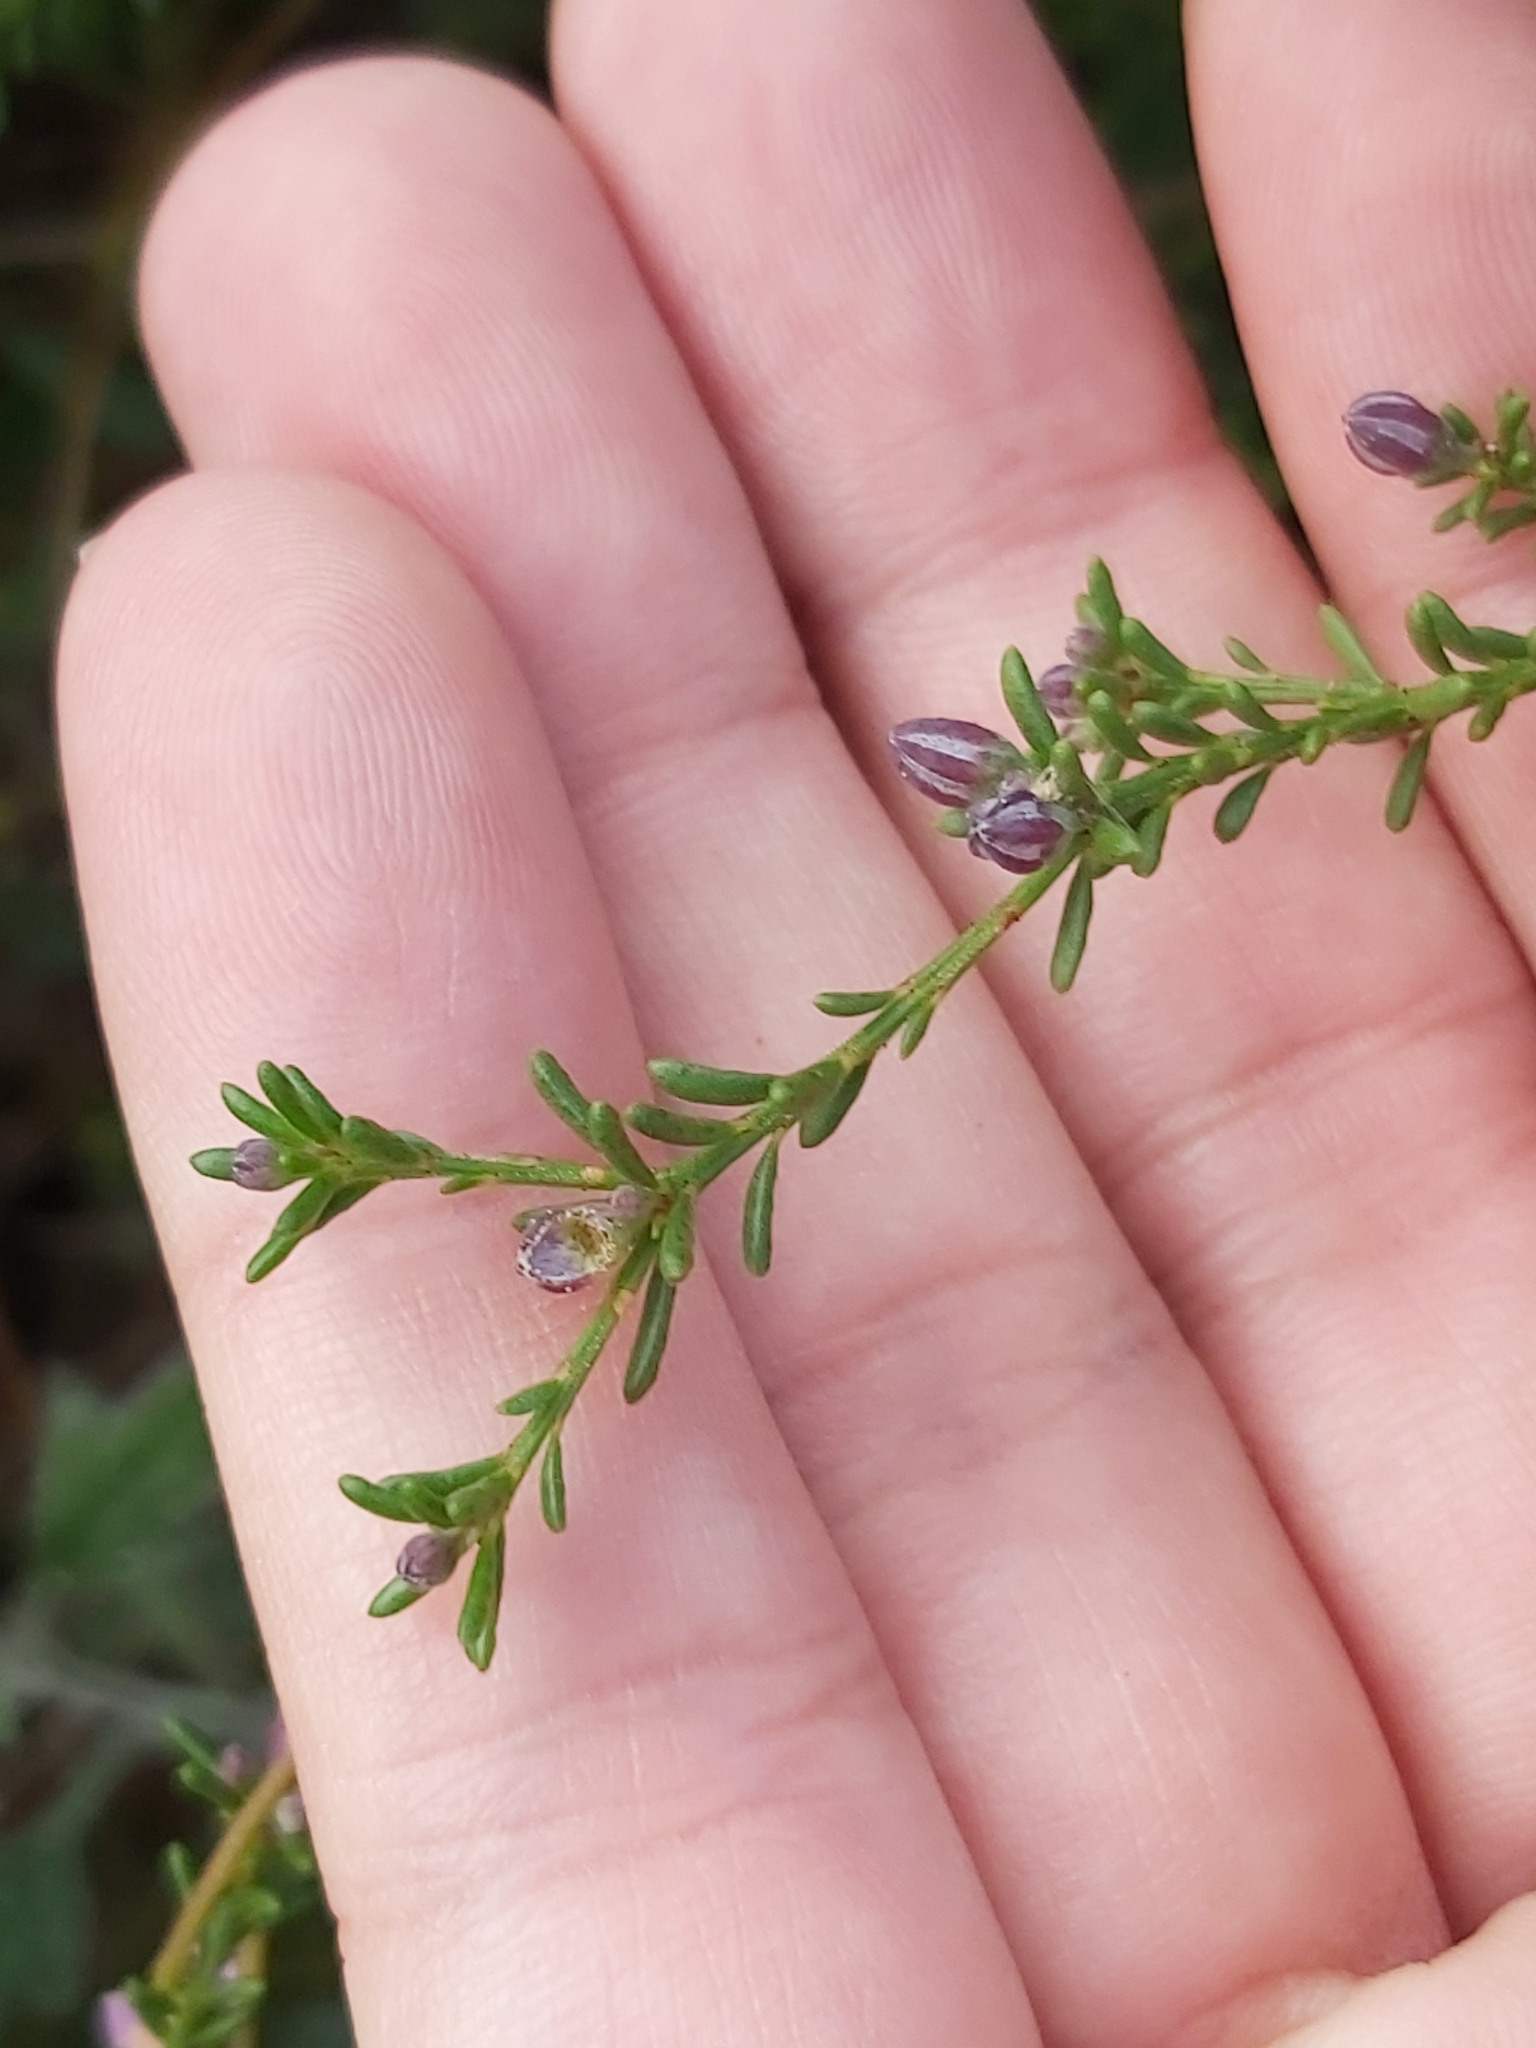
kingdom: Plantae
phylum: Tracheophyta
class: Magnoliopsida
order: Sapindales
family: Rutaceae
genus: Philotheca
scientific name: Philotheca salsolifolia
